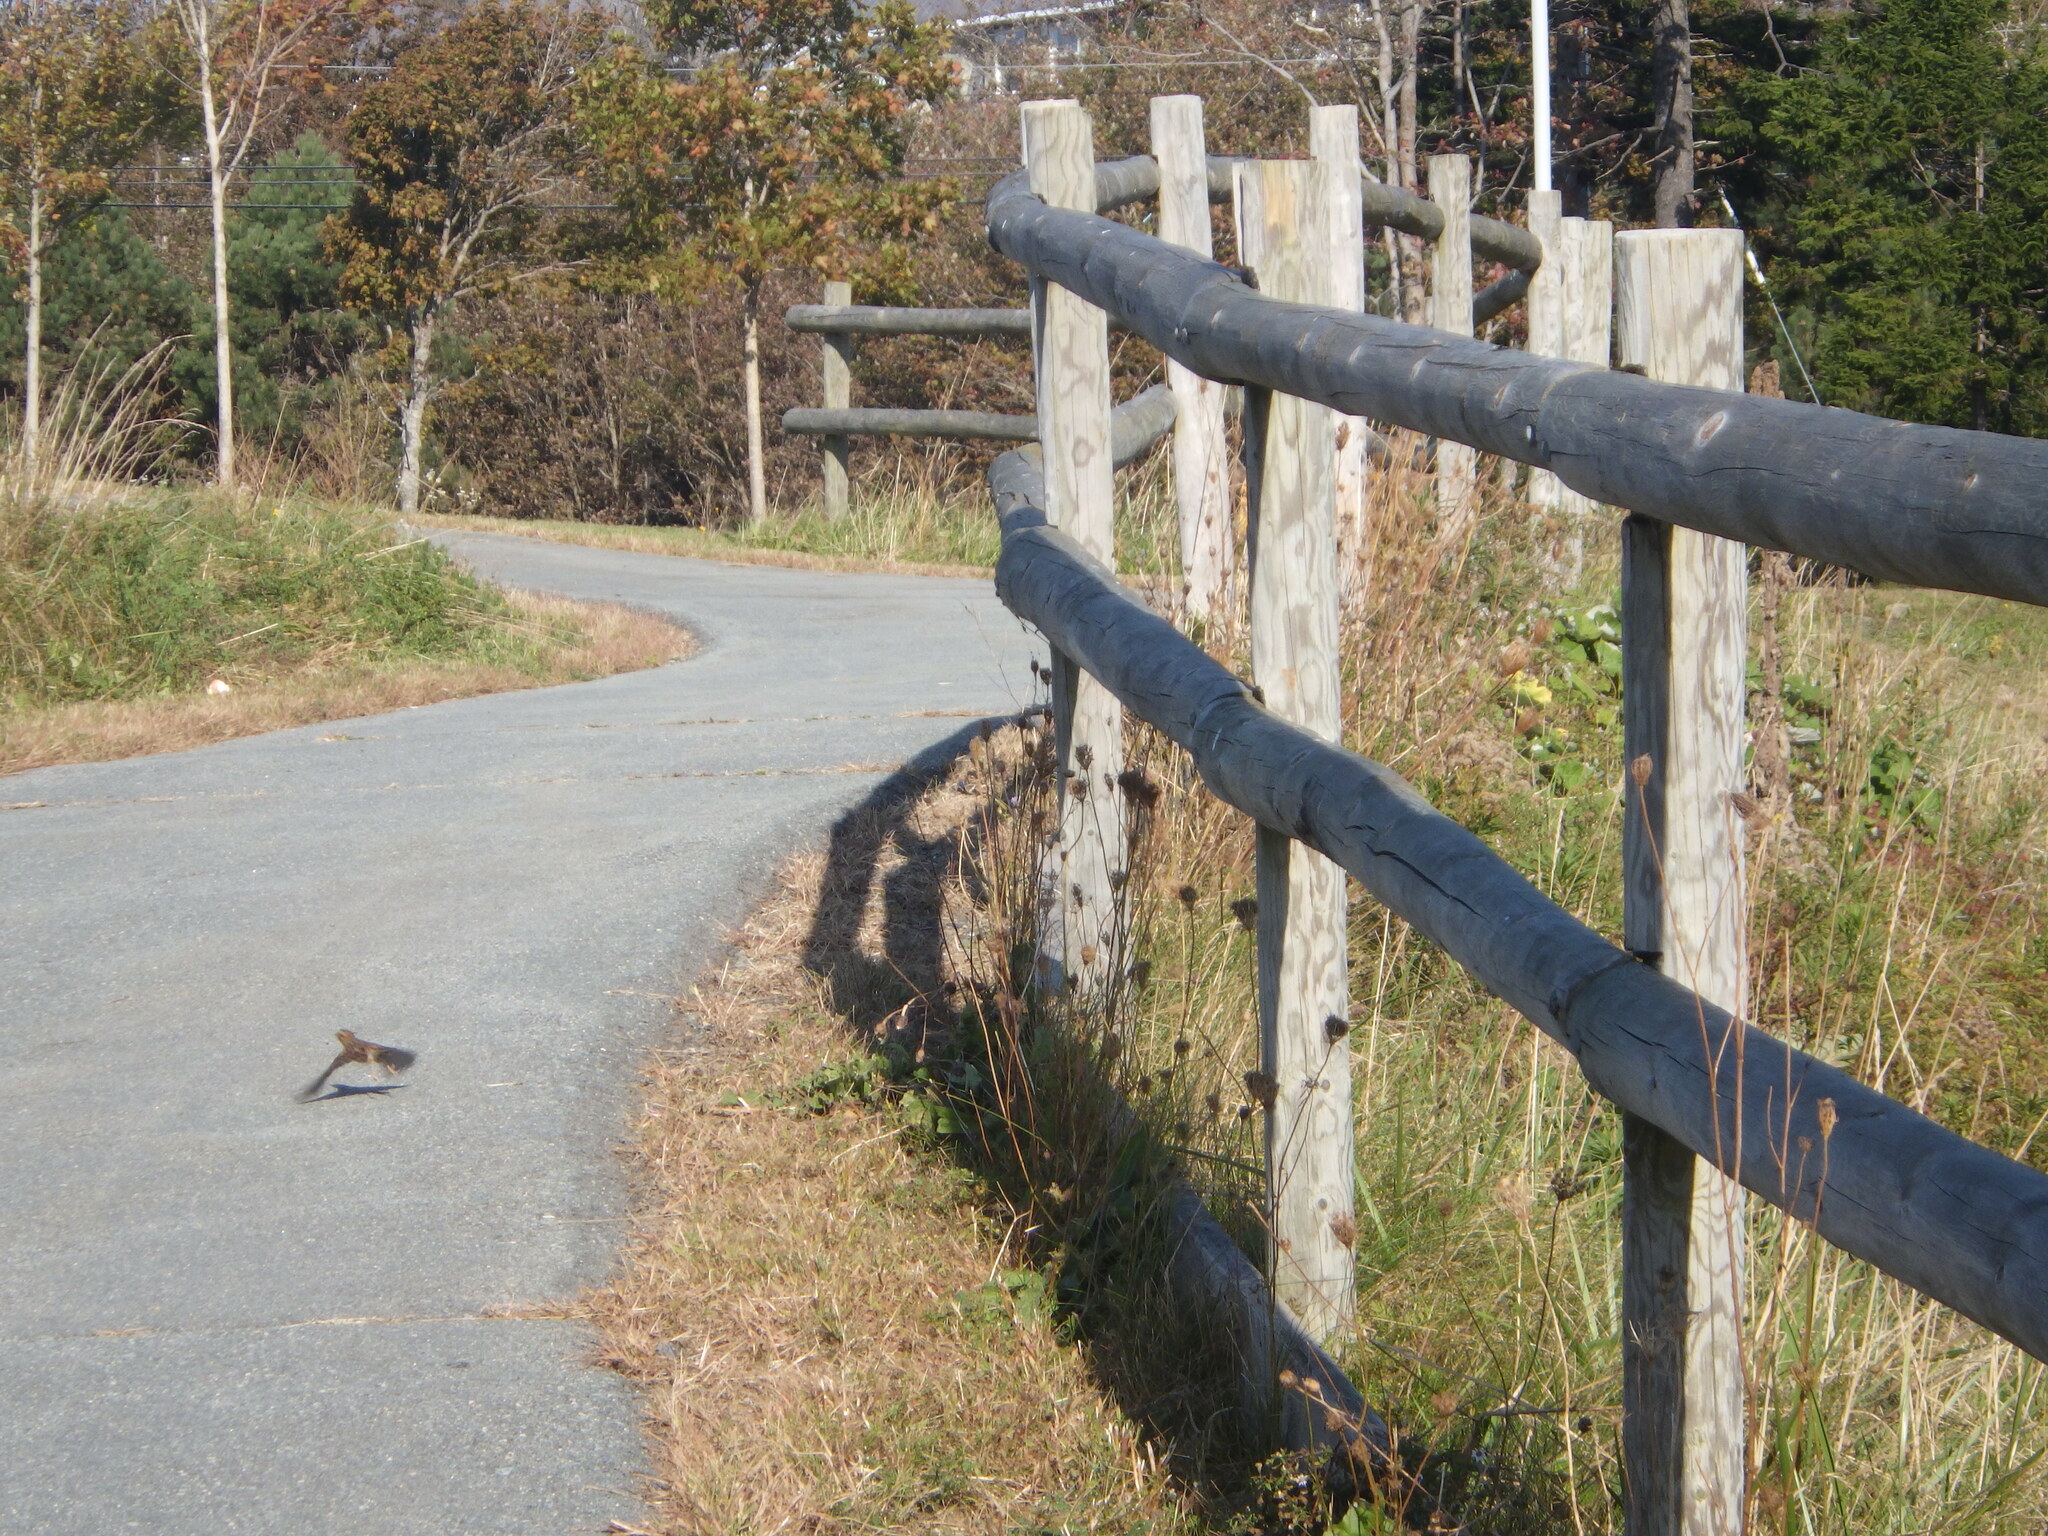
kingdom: Animalia
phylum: Chordata
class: Aves
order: Passeriformes
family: Passerellidae
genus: Passerculus
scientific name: Passerculus sandwichensis
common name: Savannah sparrow
